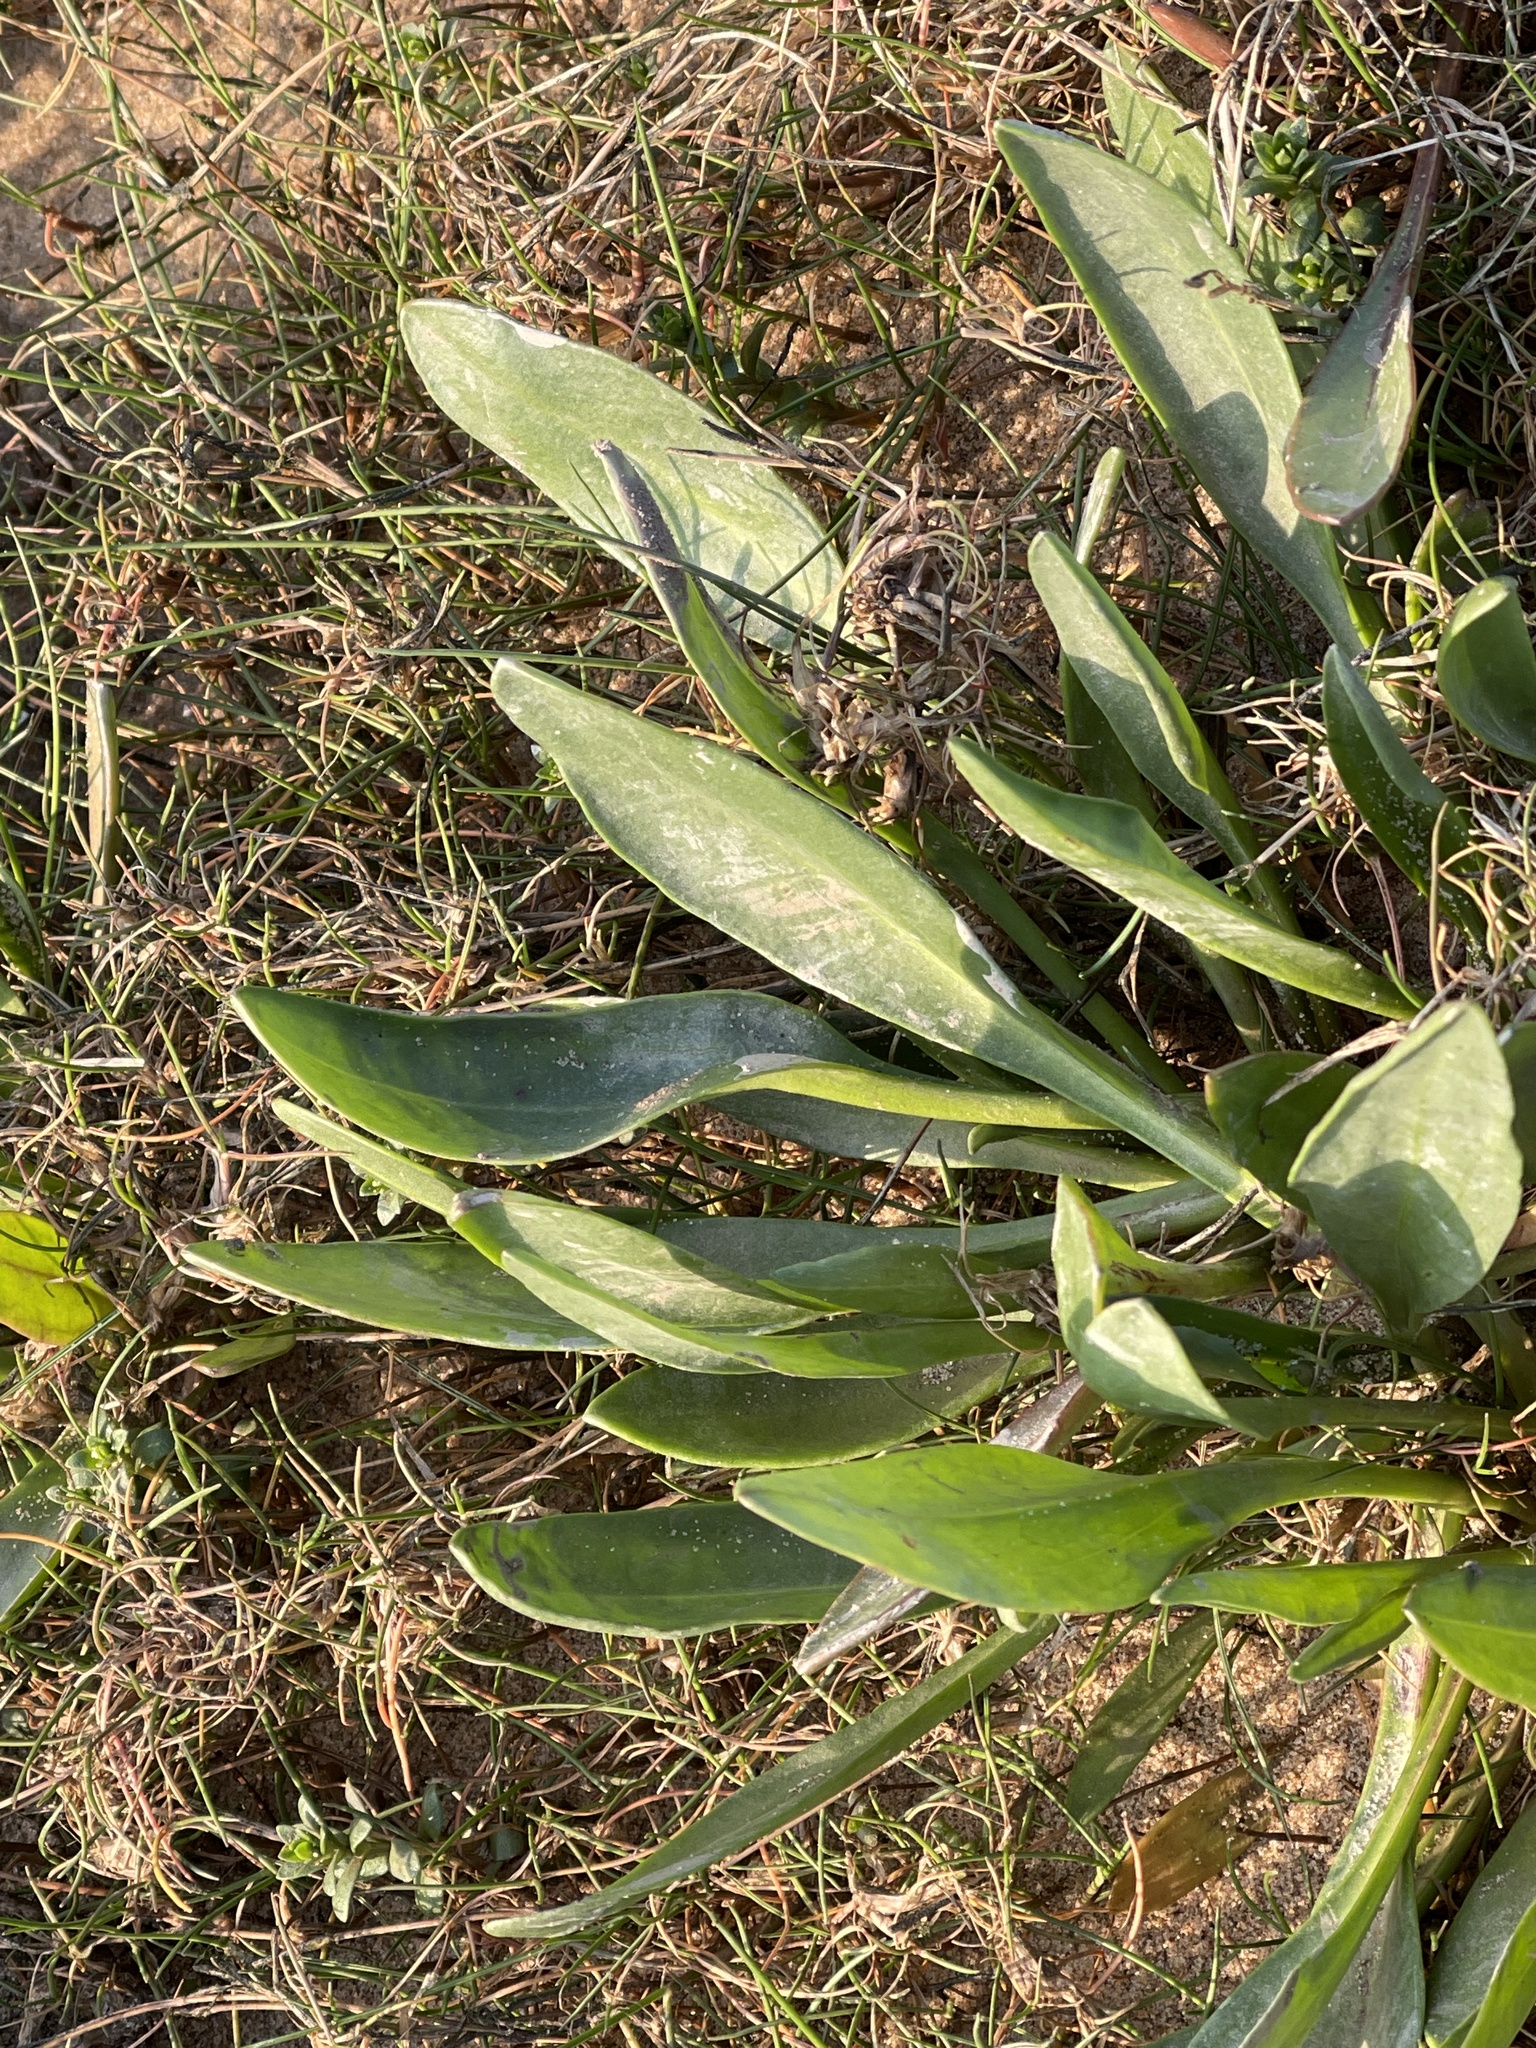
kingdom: Plantae
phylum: Tracheophyta
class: Magnoliopsida
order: Asterales
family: Asteraceae
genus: Tripolium
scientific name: Tripolium pannonicum
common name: Sea aster
